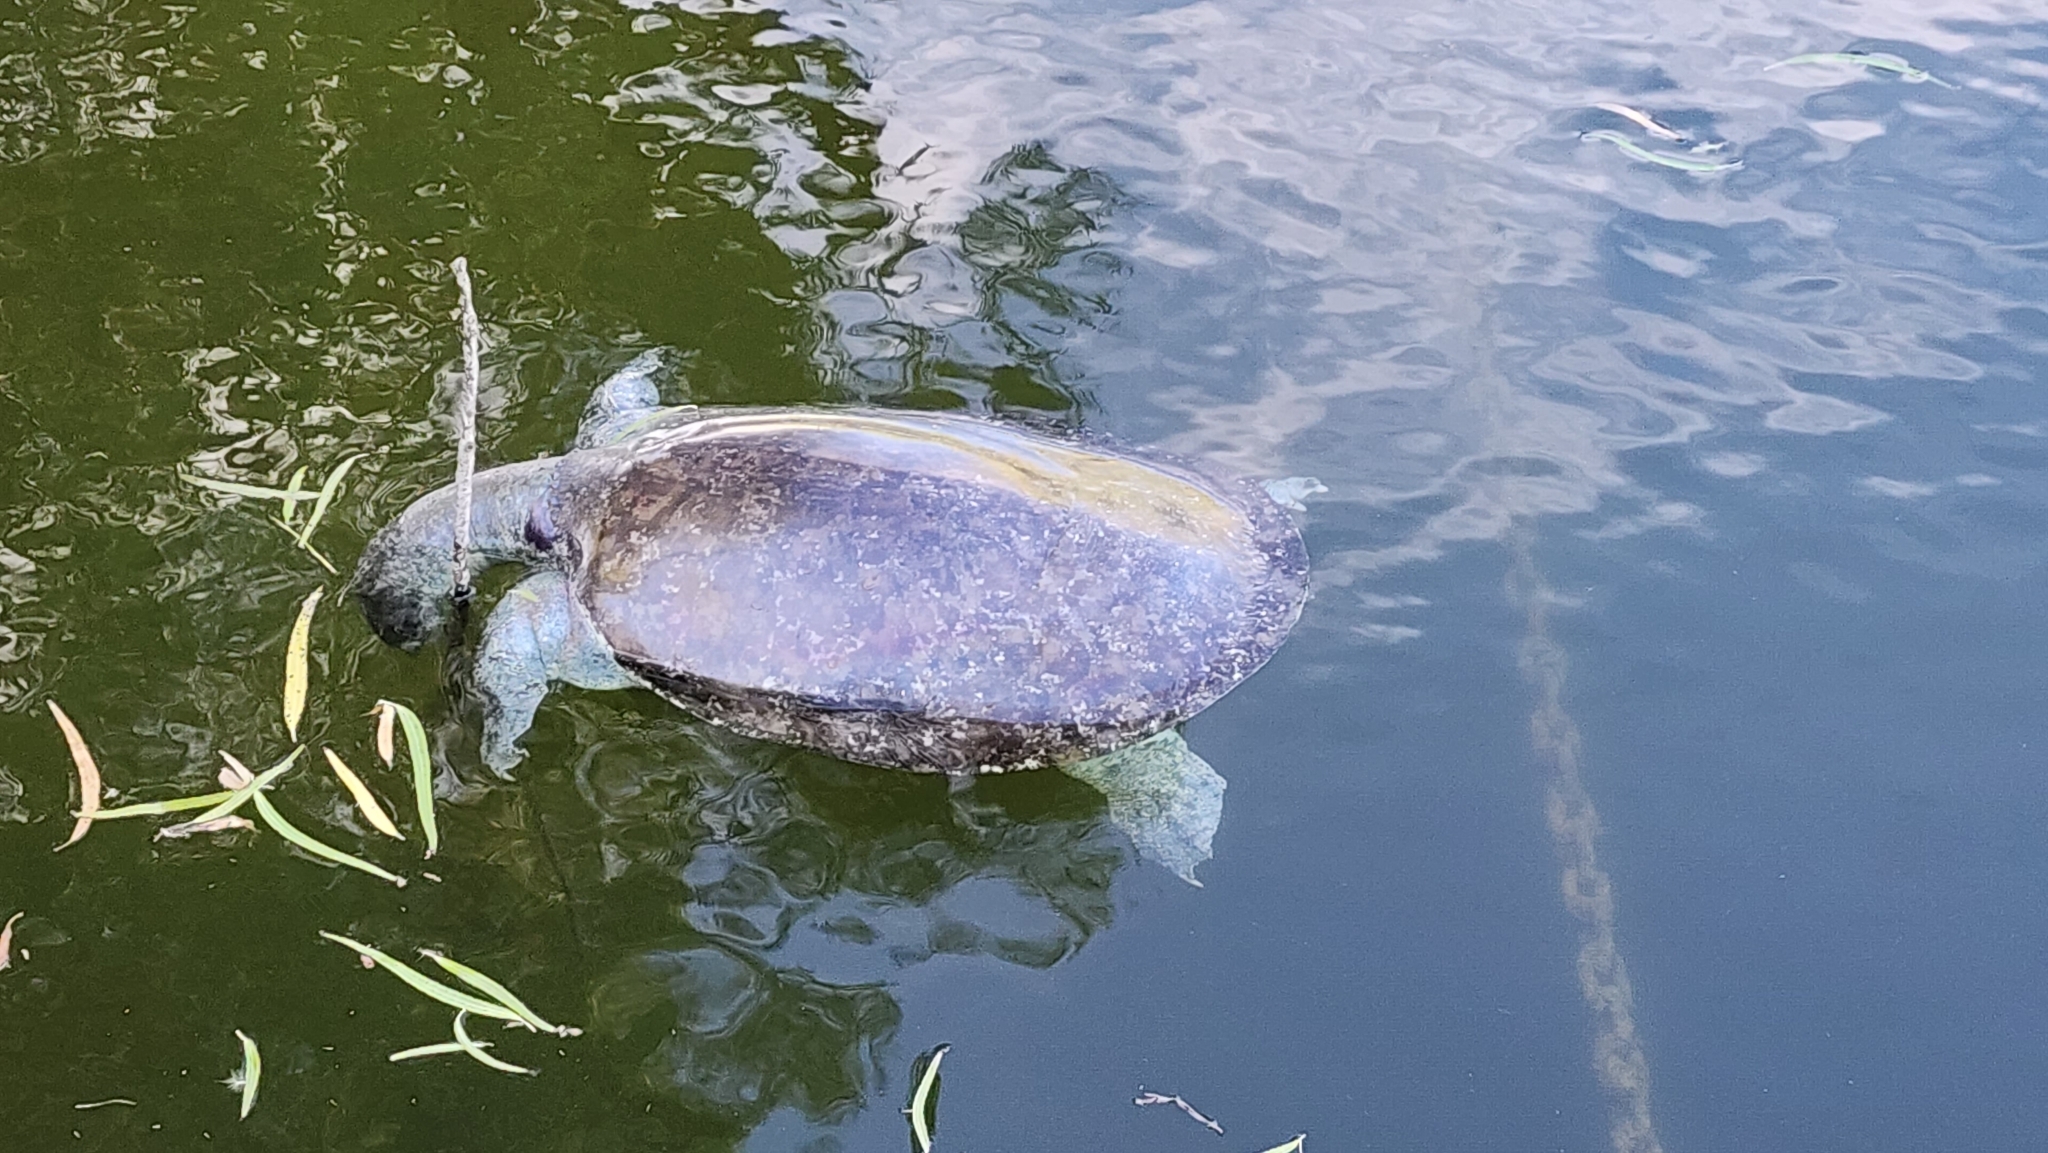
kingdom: Animalia
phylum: Chordata
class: Testudines
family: Trionychidae
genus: Apalone
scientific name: Apalone spinifera
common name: Spiny softshell turtle
